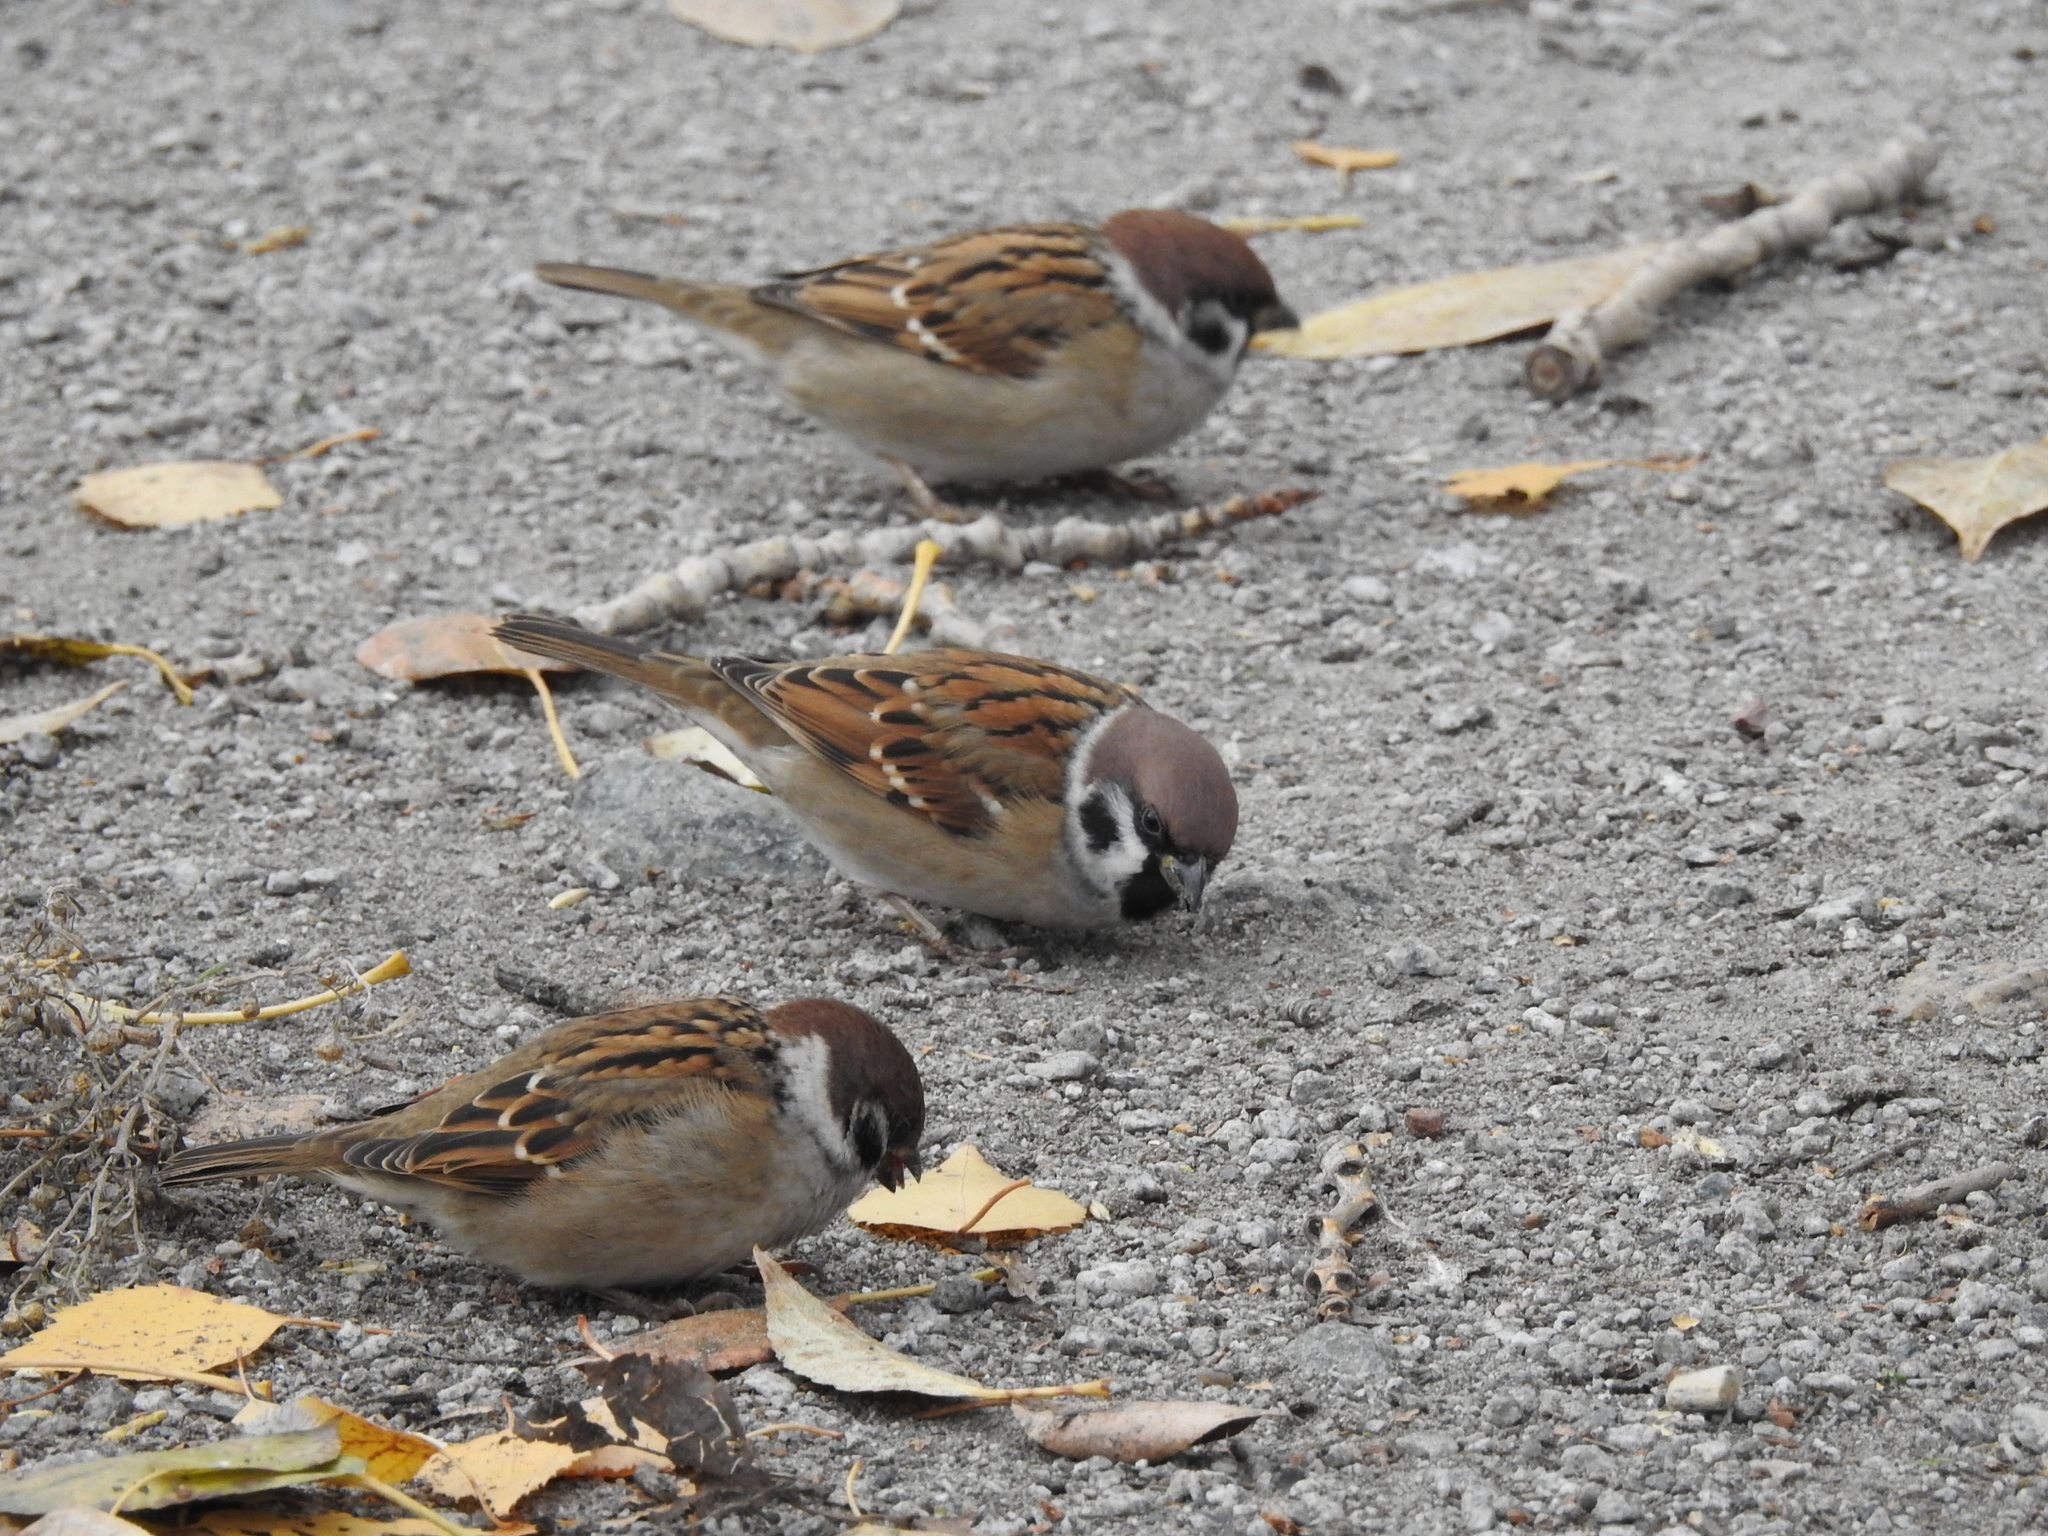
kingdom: Animalia
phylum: Chordata
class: Aves
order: Passeriformes
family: Passeridae
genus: Passer
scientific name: Passer montanus
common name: Eurasian tree sparrow
